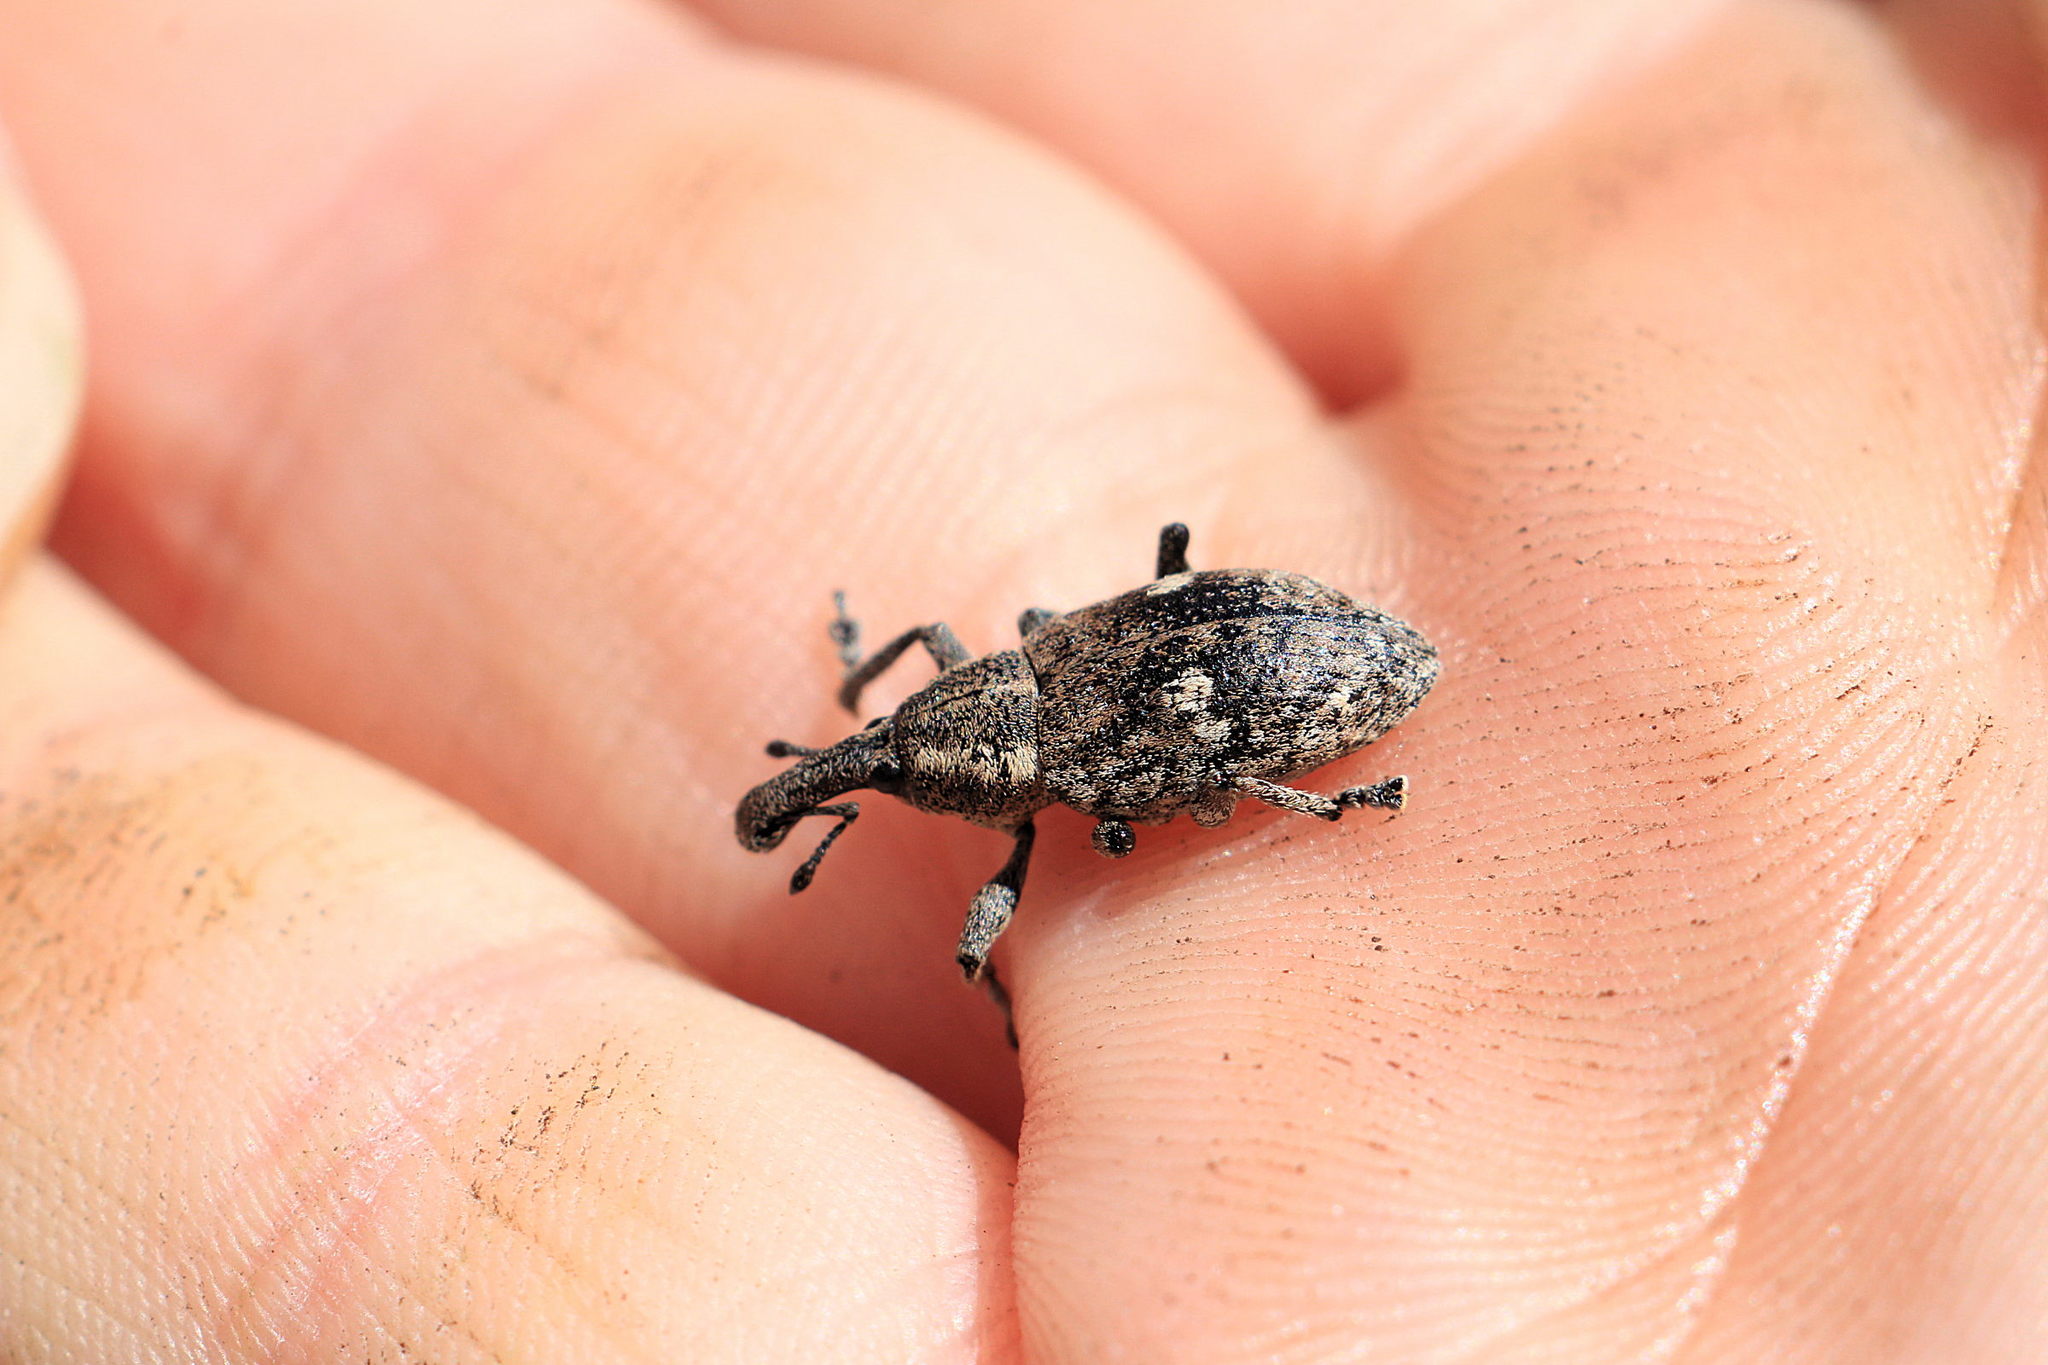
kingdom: Animalia
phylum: Arthropoda
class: Insecta
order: Coleoptera
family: Curculionidae
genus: Lepyrus
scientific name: Lepyrus palustris
